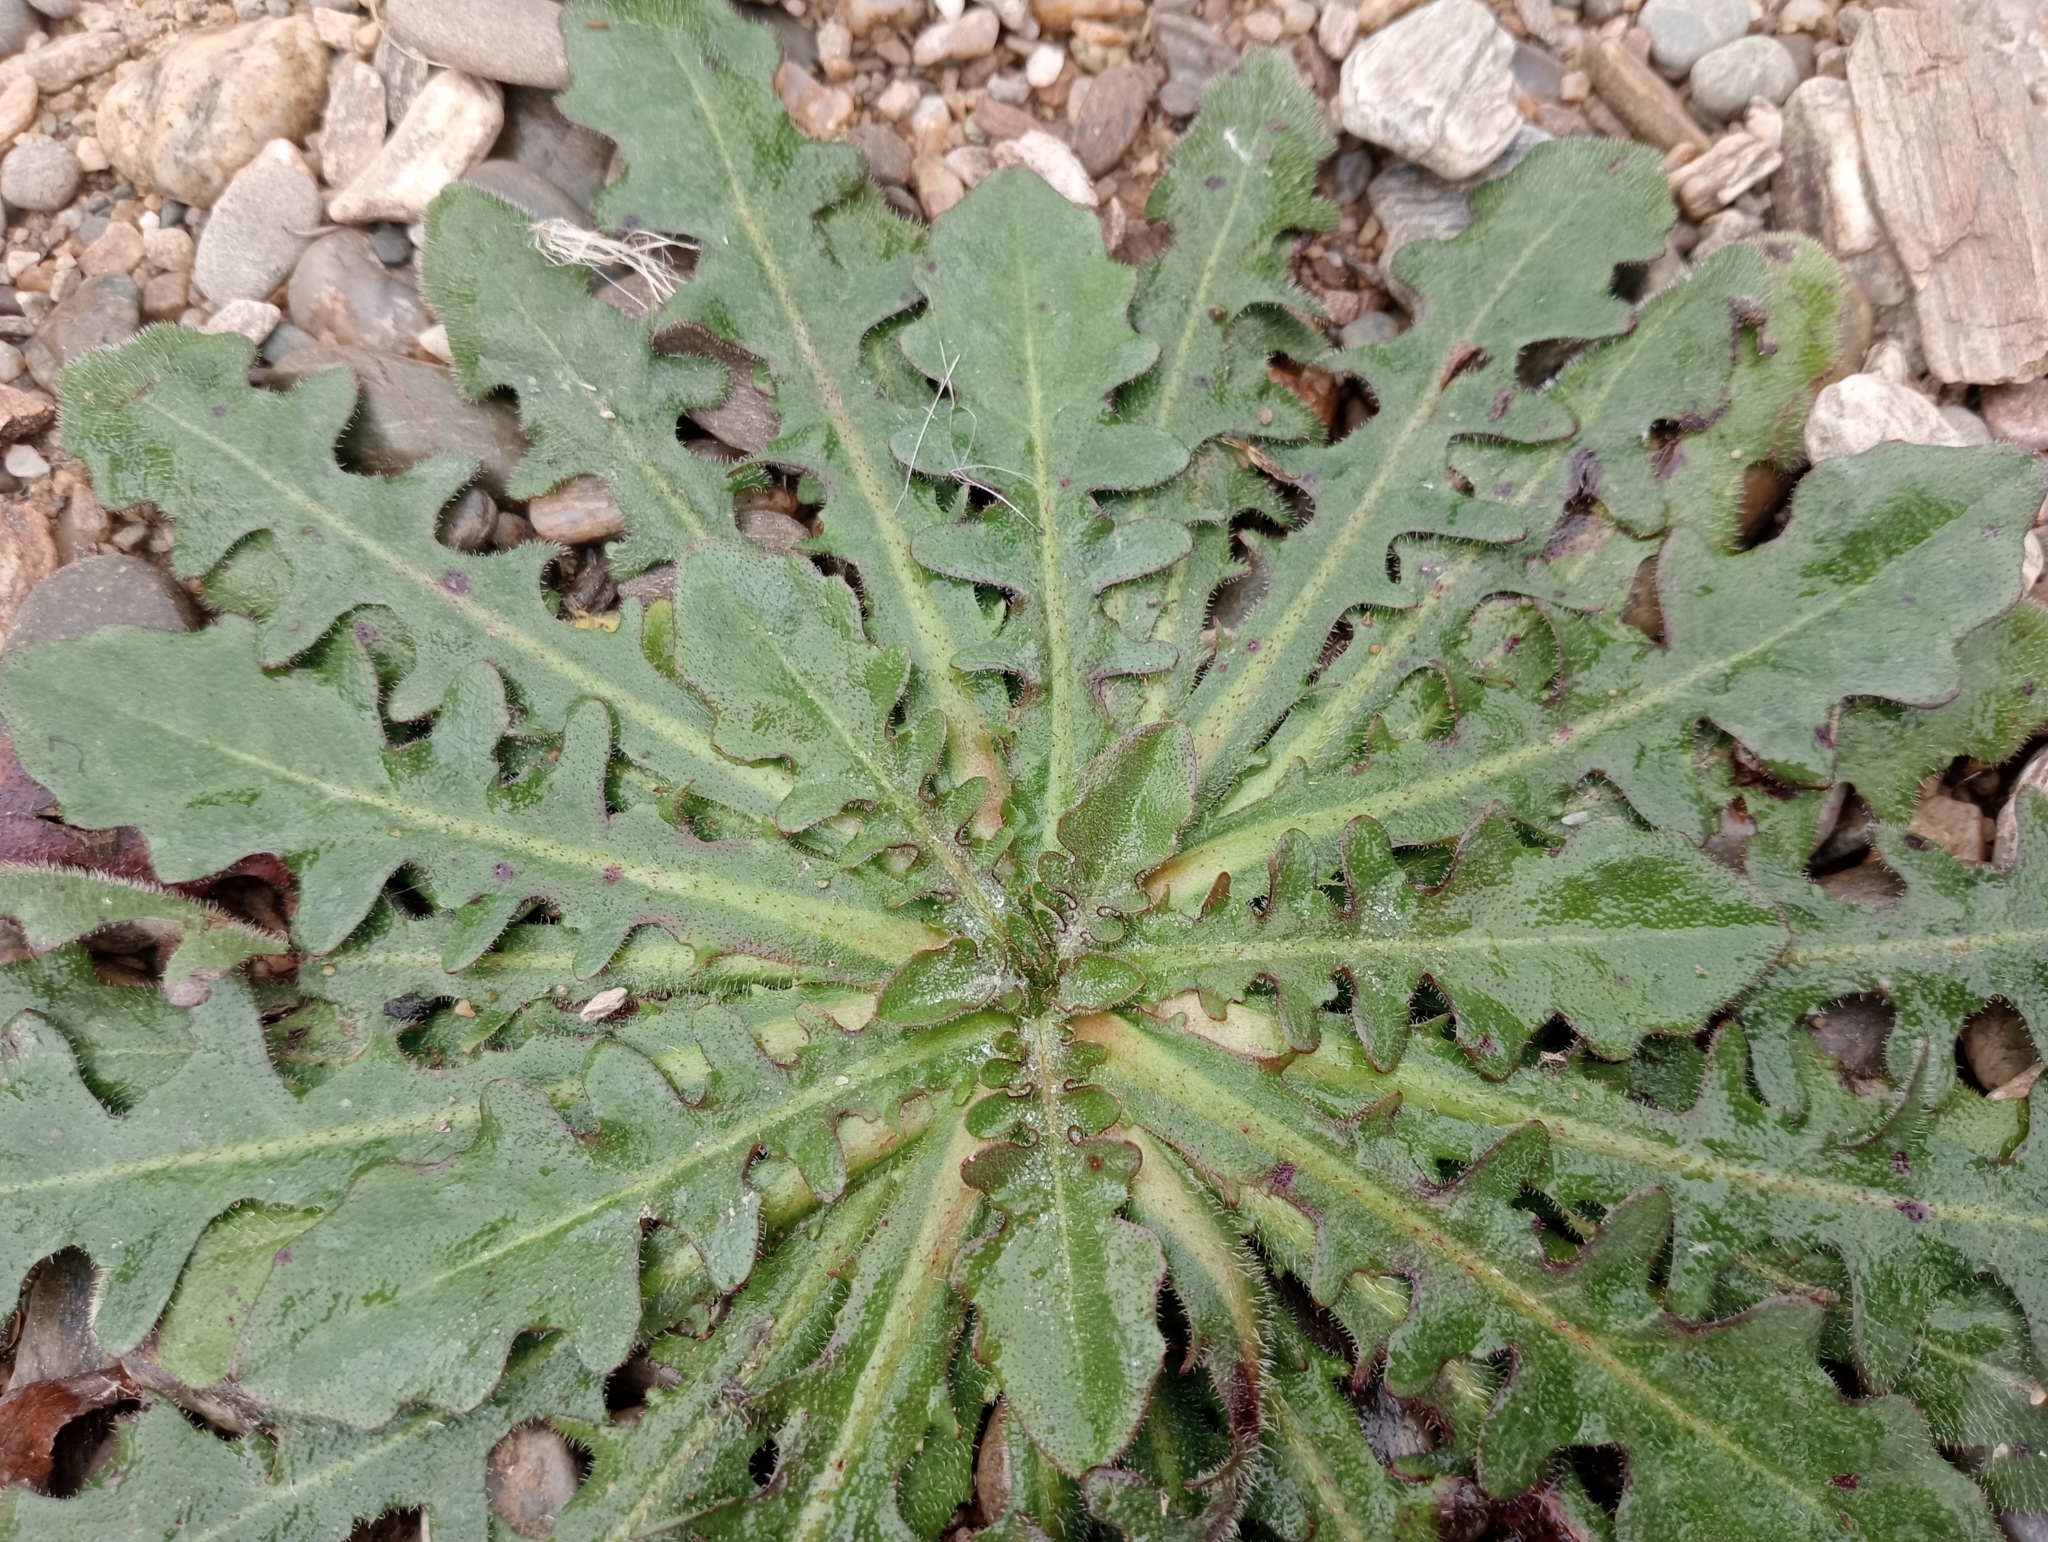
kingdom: Plantae
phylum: Tracheophyta
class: Magnoliopsida
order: Asterales
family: Asteraceae
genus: Hypochaeris
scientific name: Hypochaeris radicata
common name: Flatweed
